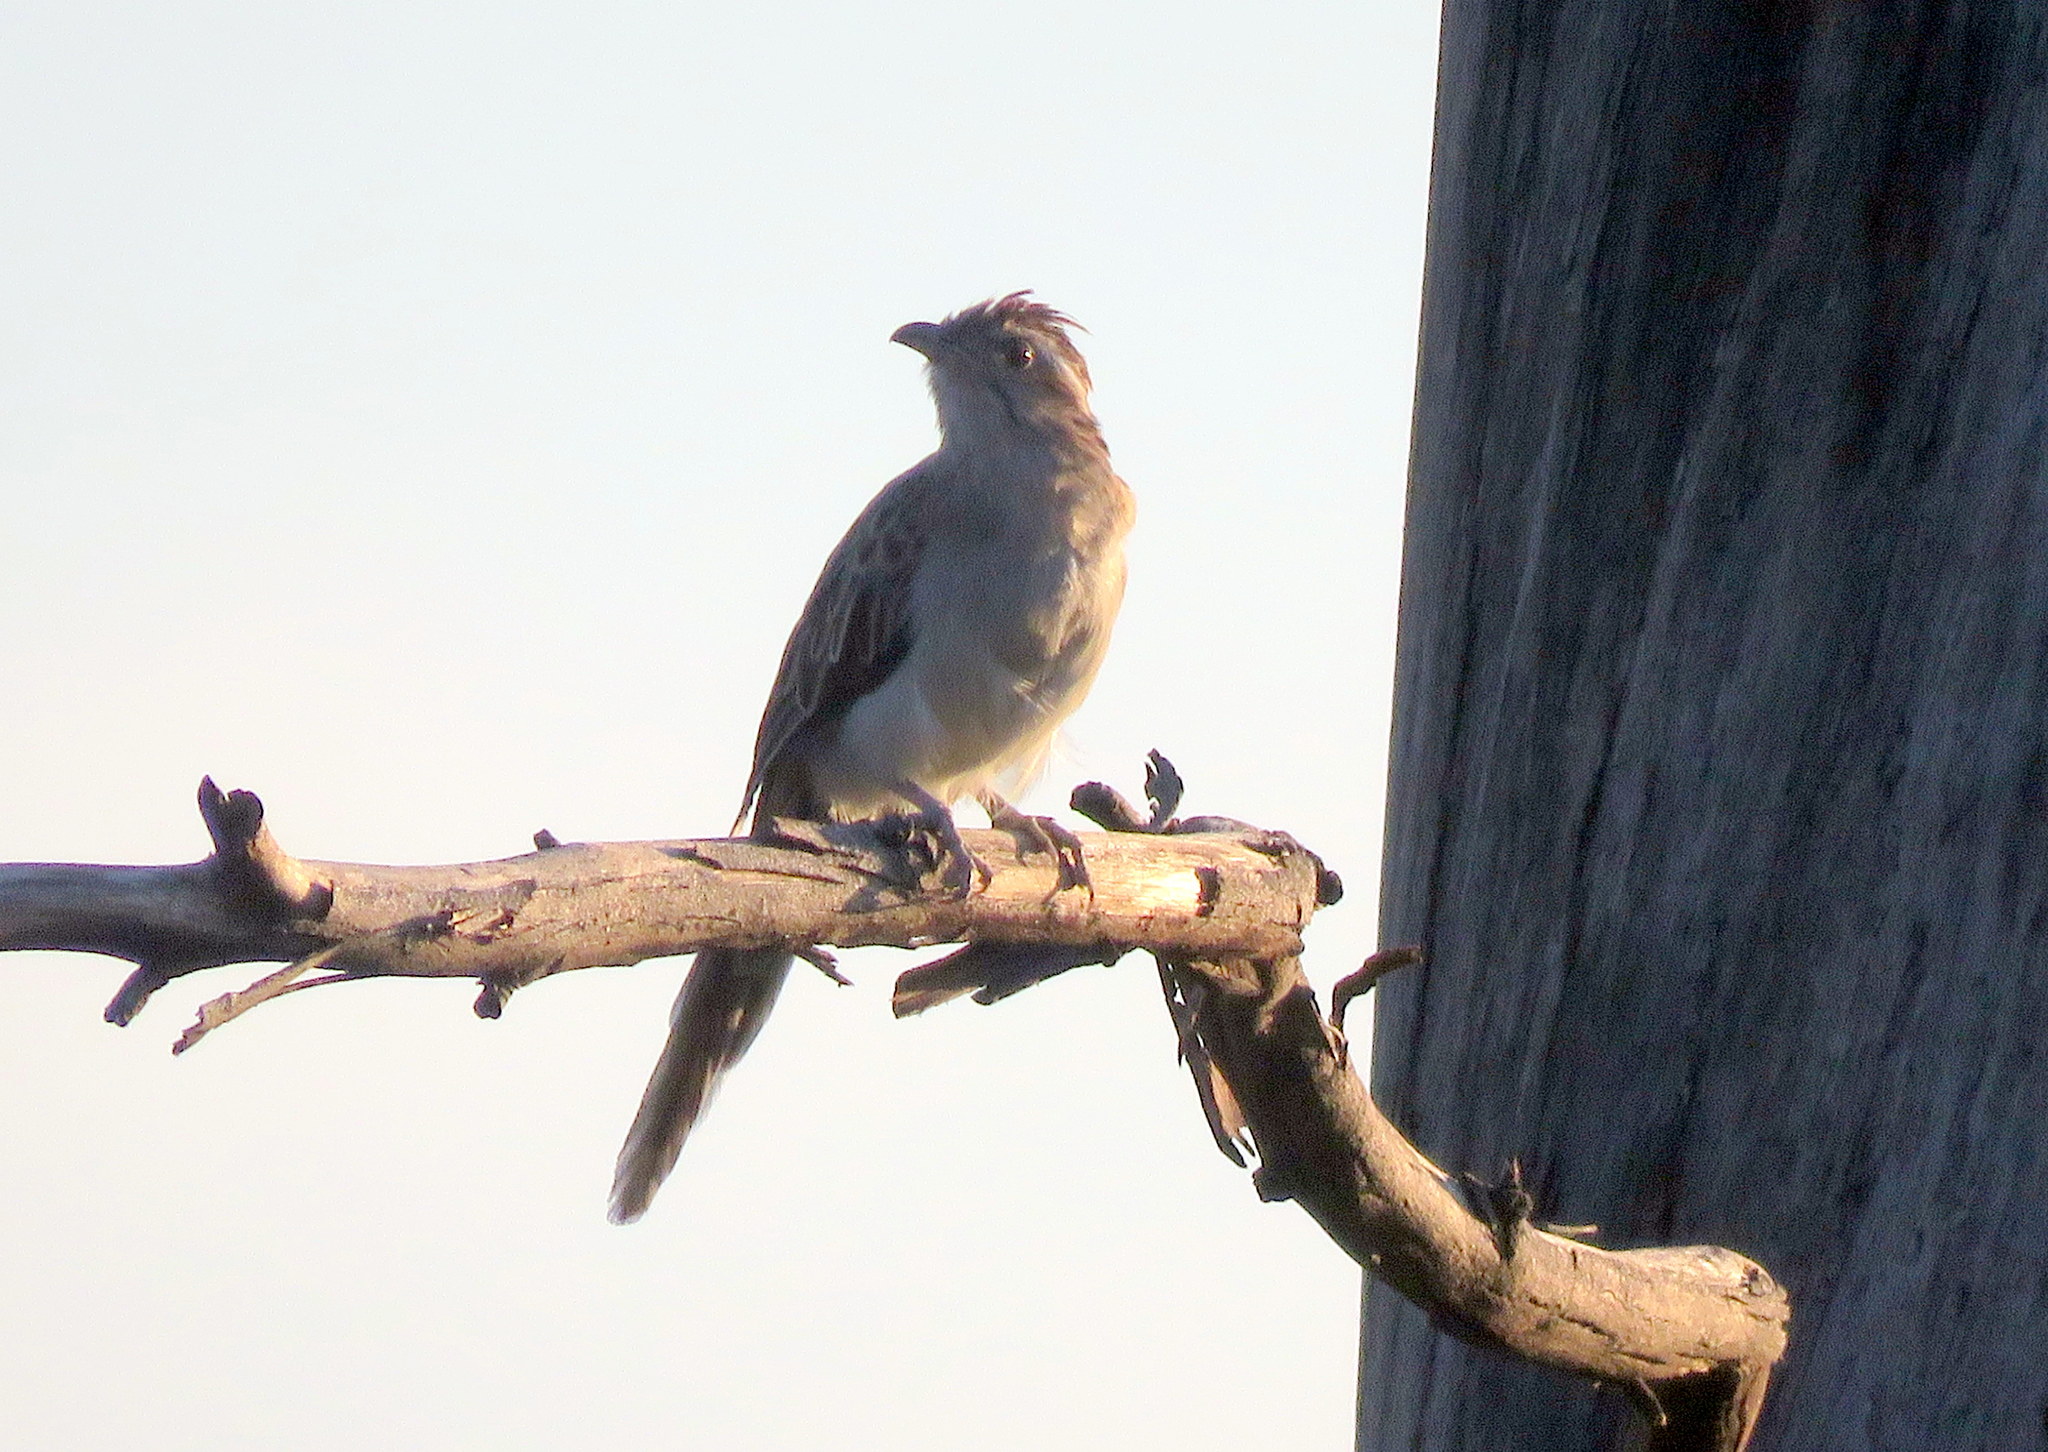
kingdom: Animalia
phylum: Chordata
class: Aves
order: Cuculiformes
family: Cuculidae
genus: Tapera
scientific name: Tapera naevia
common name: Striped cuckoo
